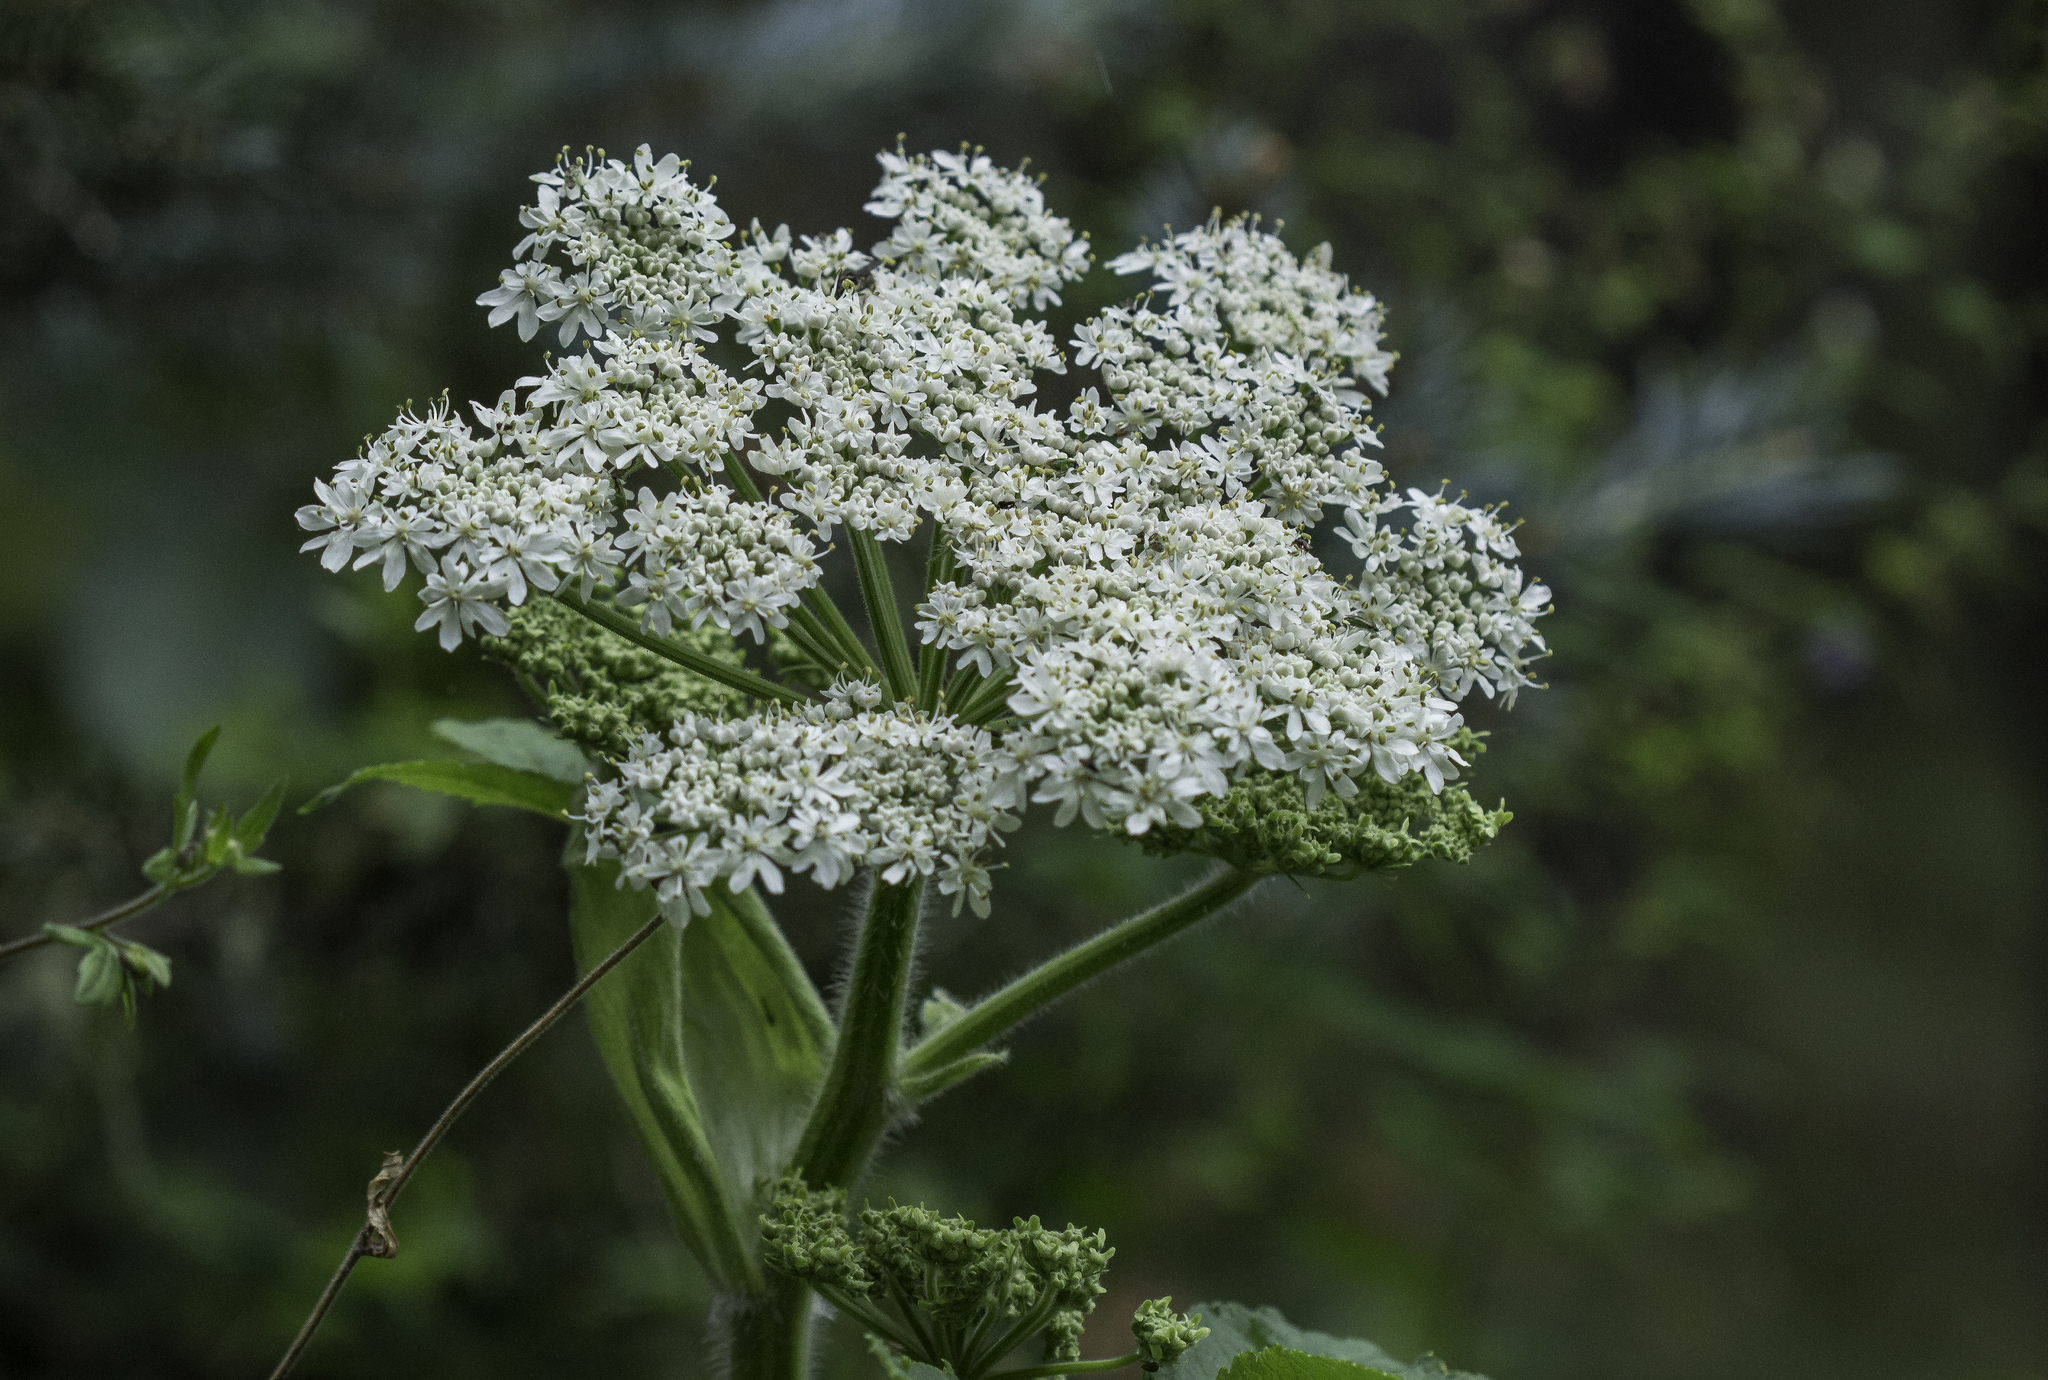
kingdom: Plantae
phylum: Tracheophyta
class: Magnoliopsida
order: Apiales
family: Apiaceae
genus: Heracleum
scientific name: Heracleum maximum
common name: American cow parsnip
